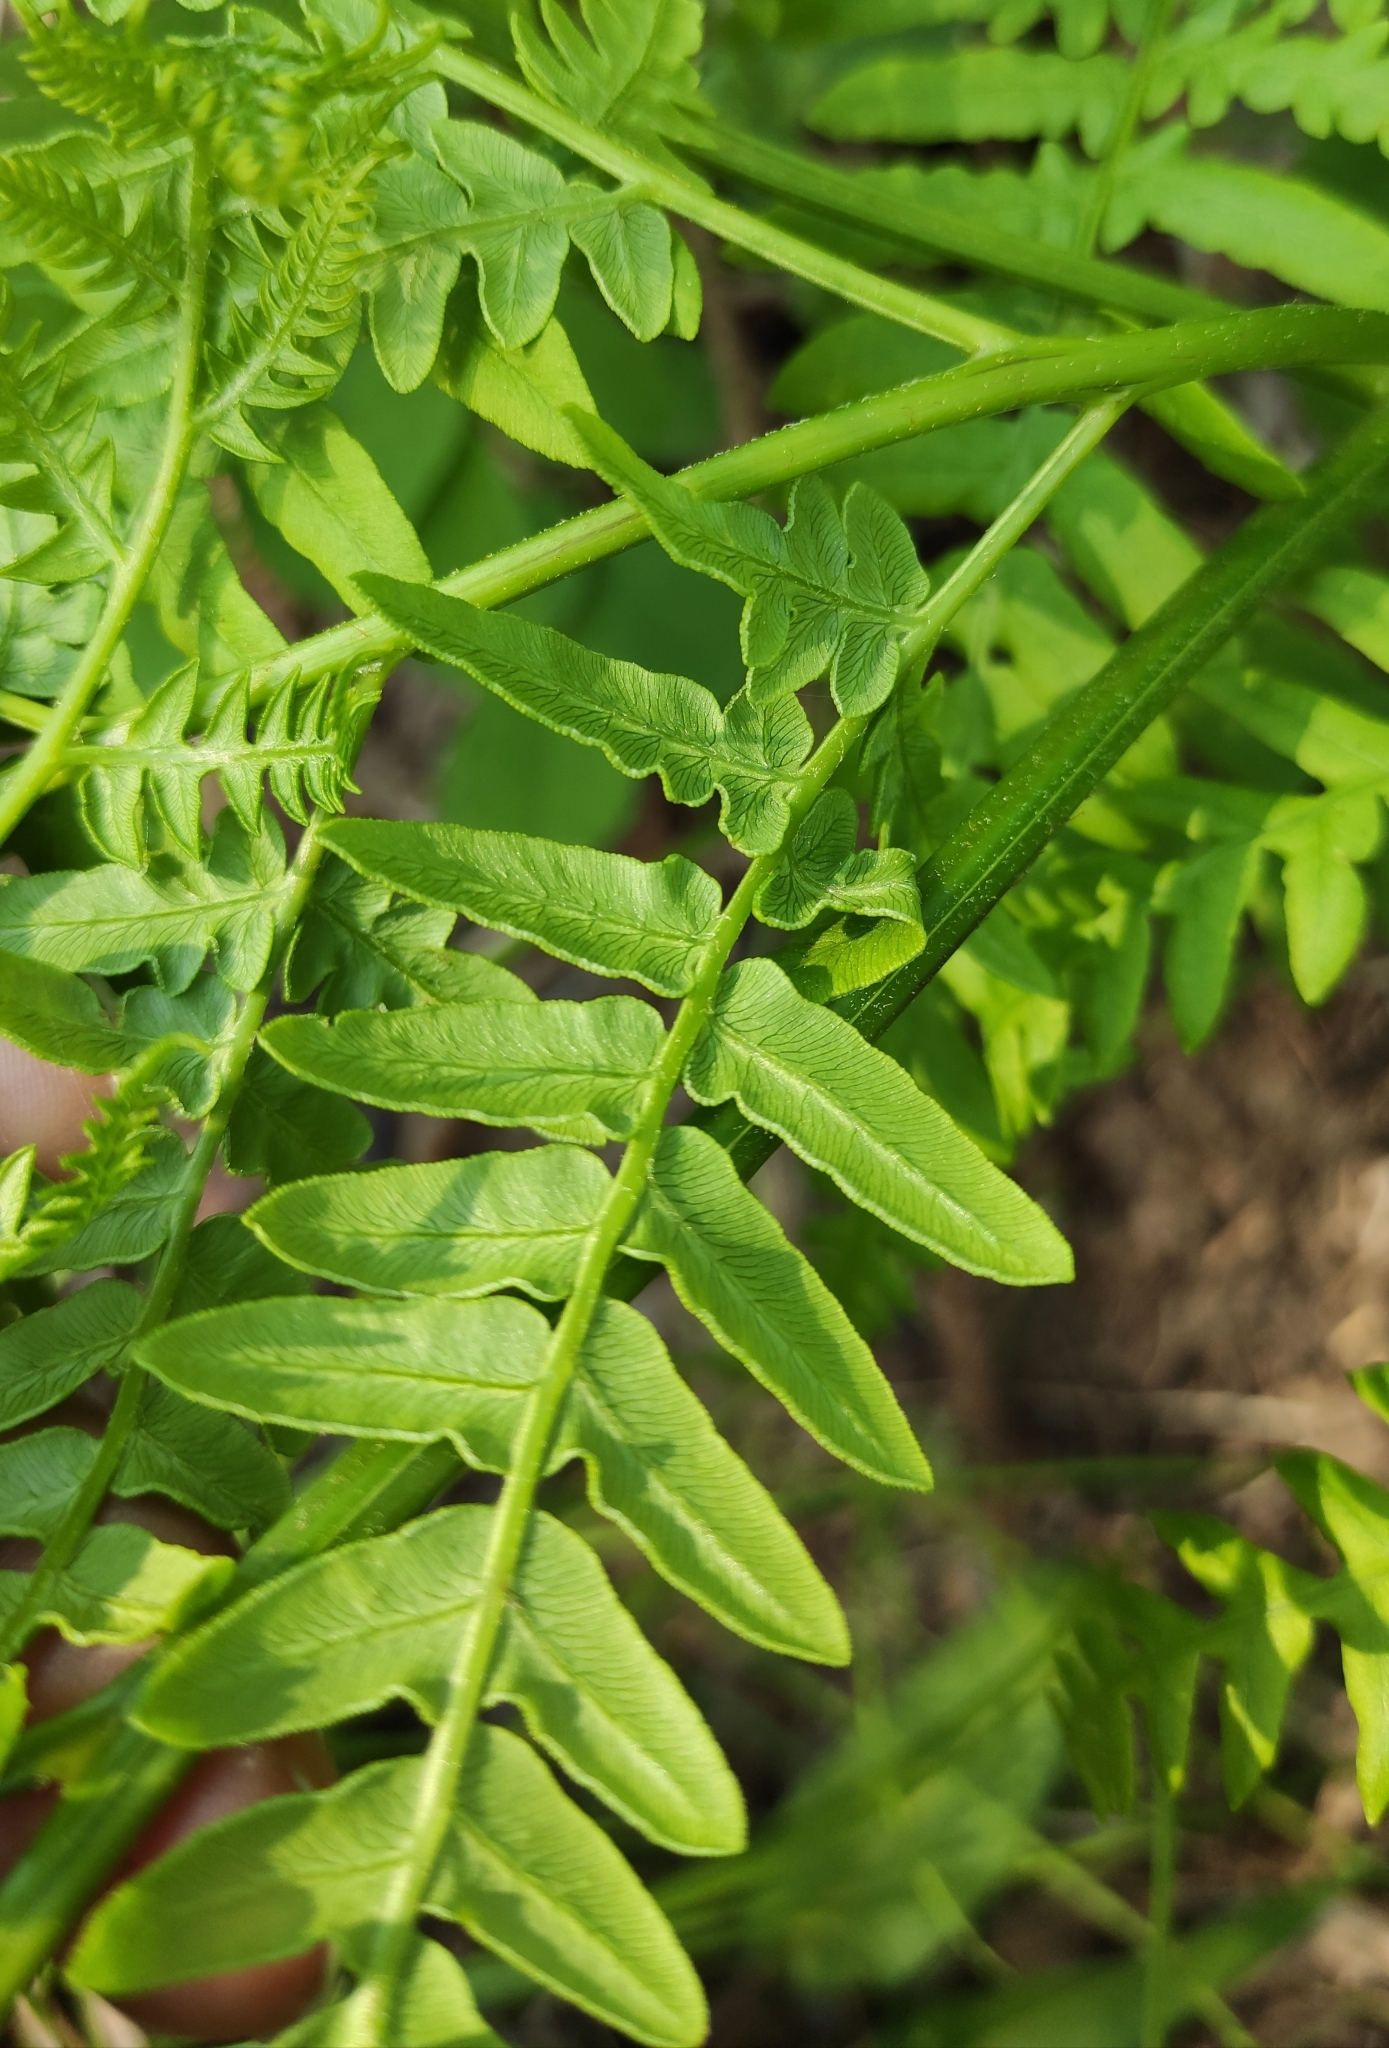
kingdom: Plantae
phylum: Tracheophyta
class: Polypodiopsida
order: Polypodiales
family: Dennstaedtiaceae
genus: Pteridium
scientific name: Pteridium aquilinum
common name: Bracken
